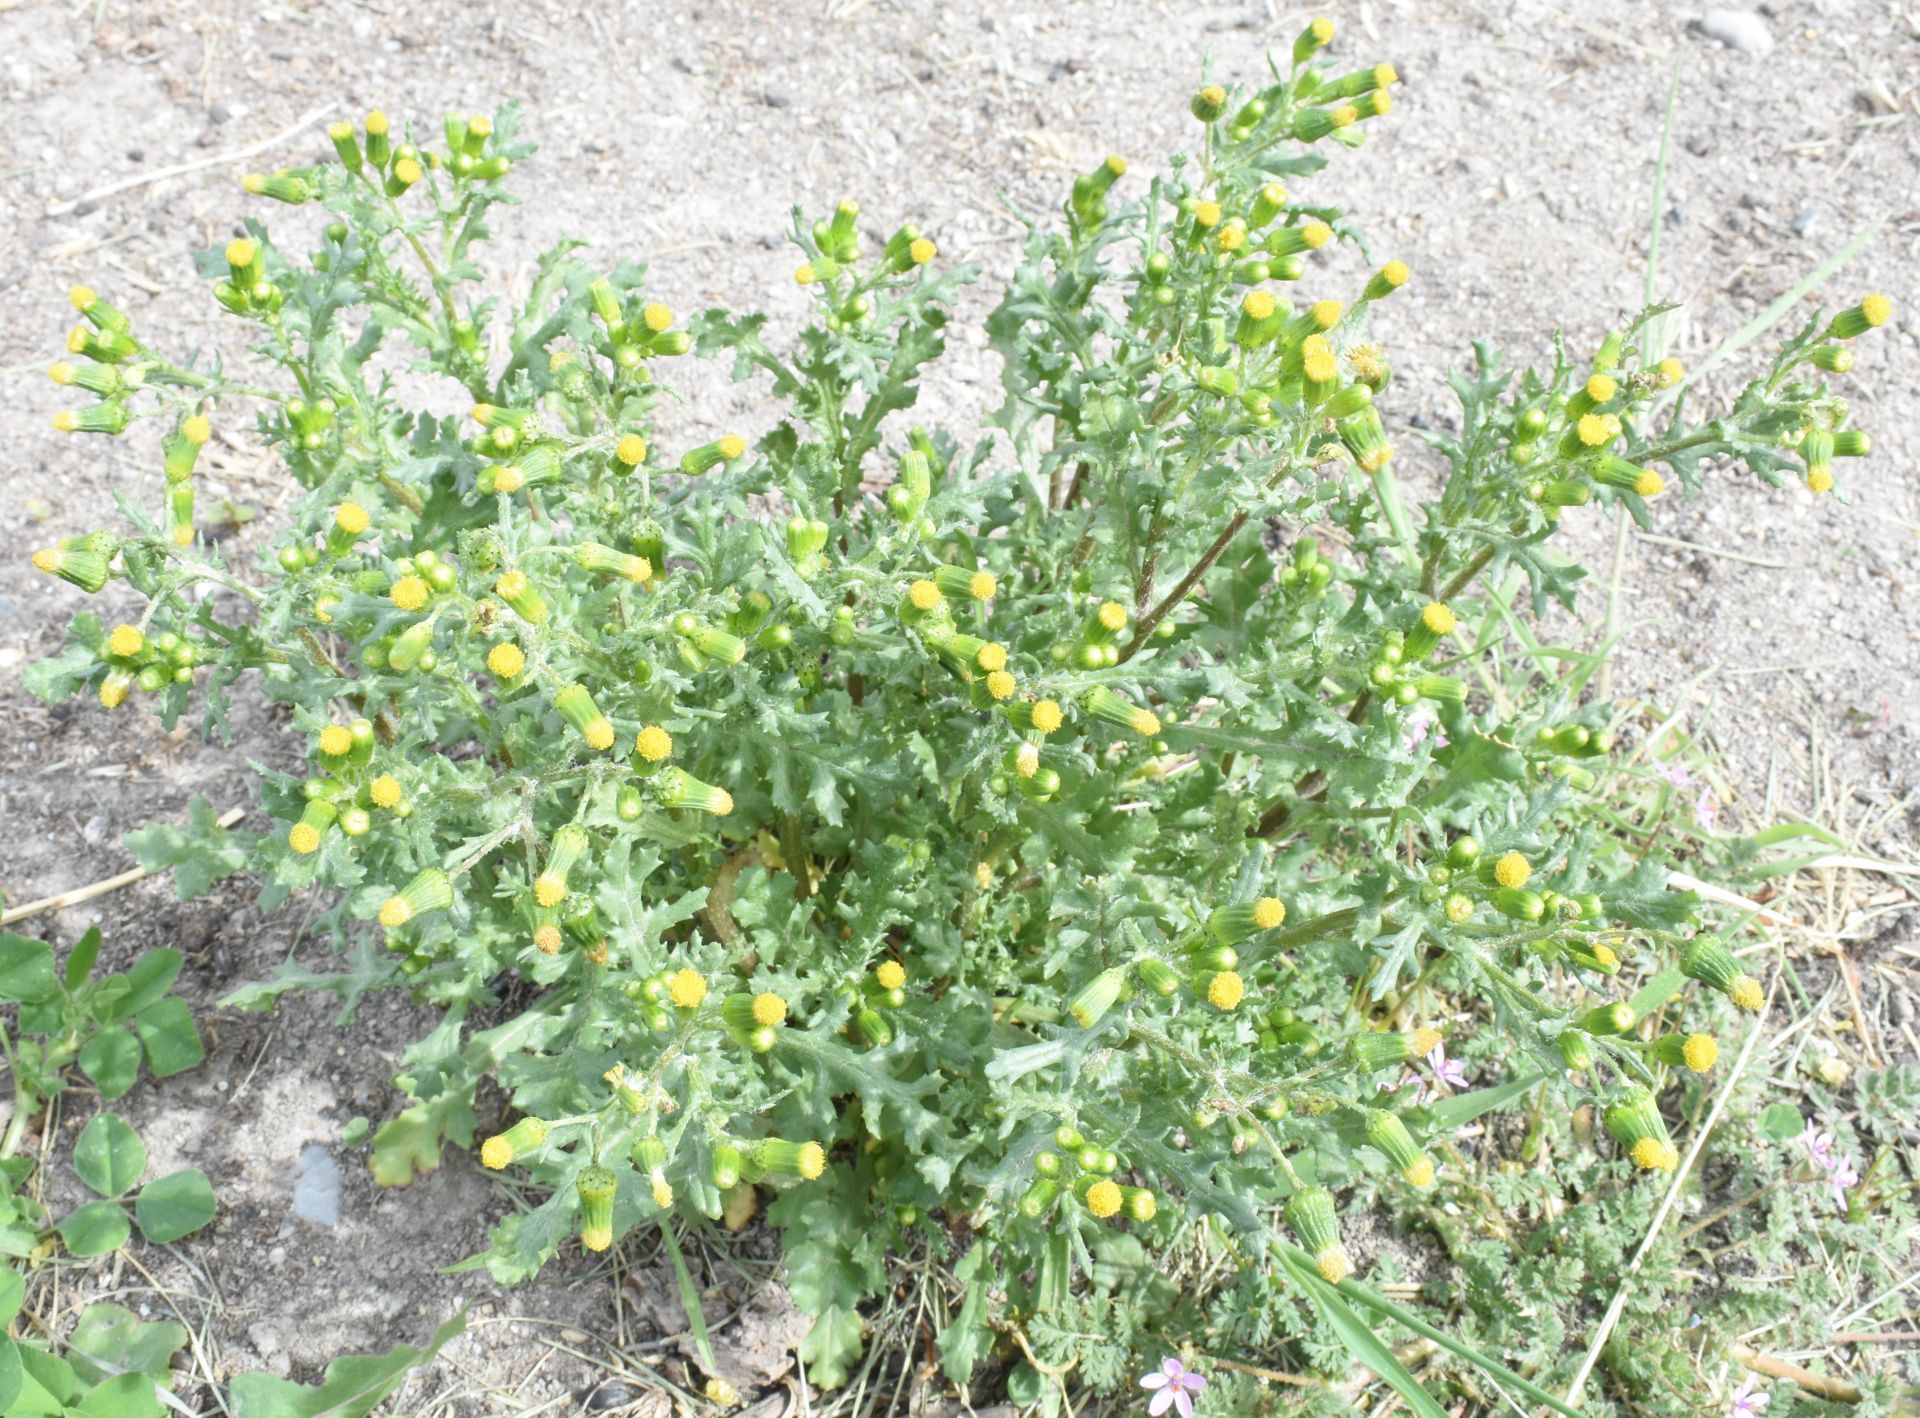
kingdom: Plantae
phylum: Tracheophyta
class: Magnoliopsida
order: Asterales
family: Asteraceae
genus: Senecio
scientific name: Senecio vulgaris
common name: Old-man-in-the-spring
